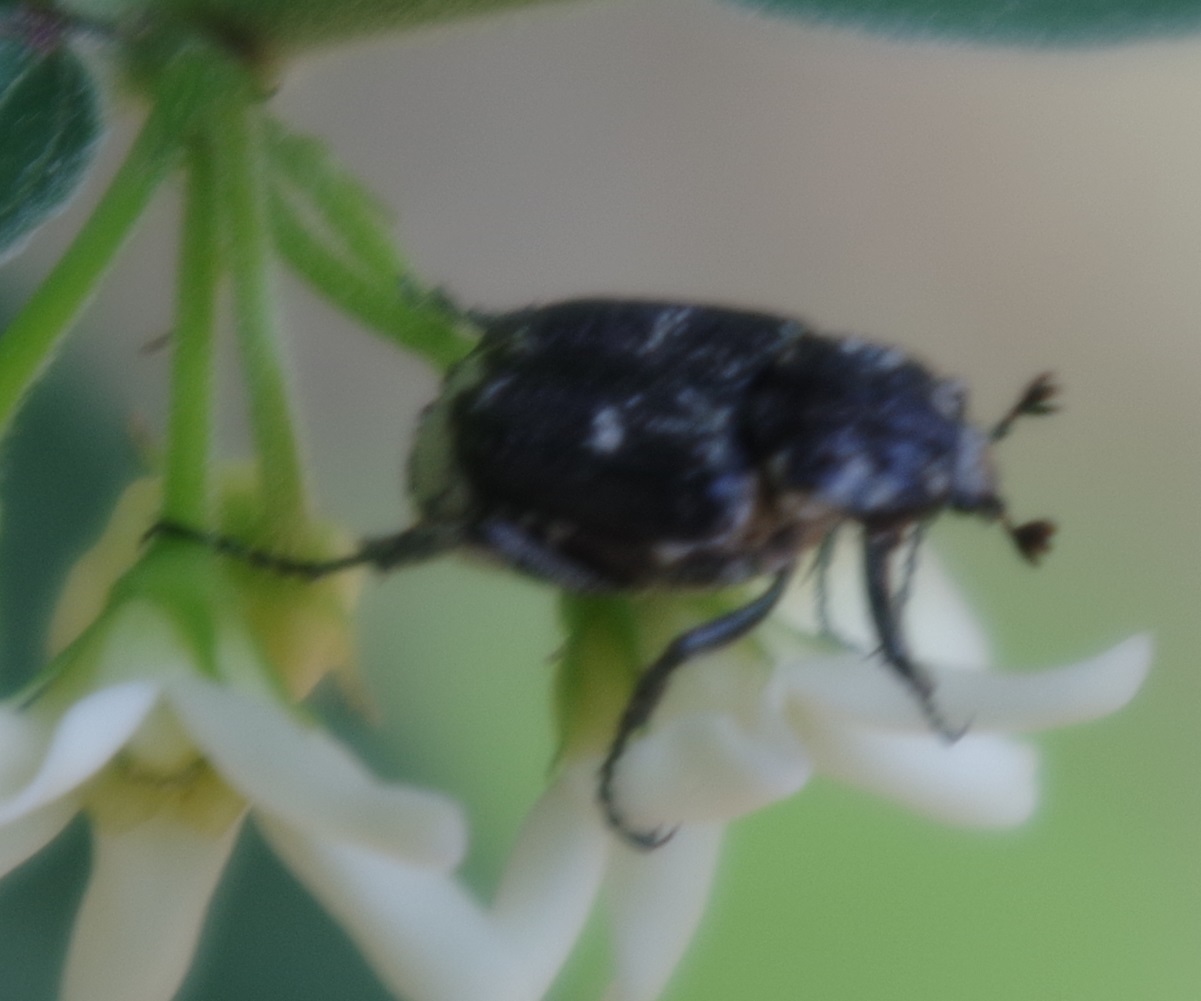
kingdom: Animalia
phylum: Arthropoda
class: Insecta
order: Coleoptera
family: Scarabaeidae
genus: Valgus
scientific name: Valgus hemipterus
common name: Bug flower chafer
